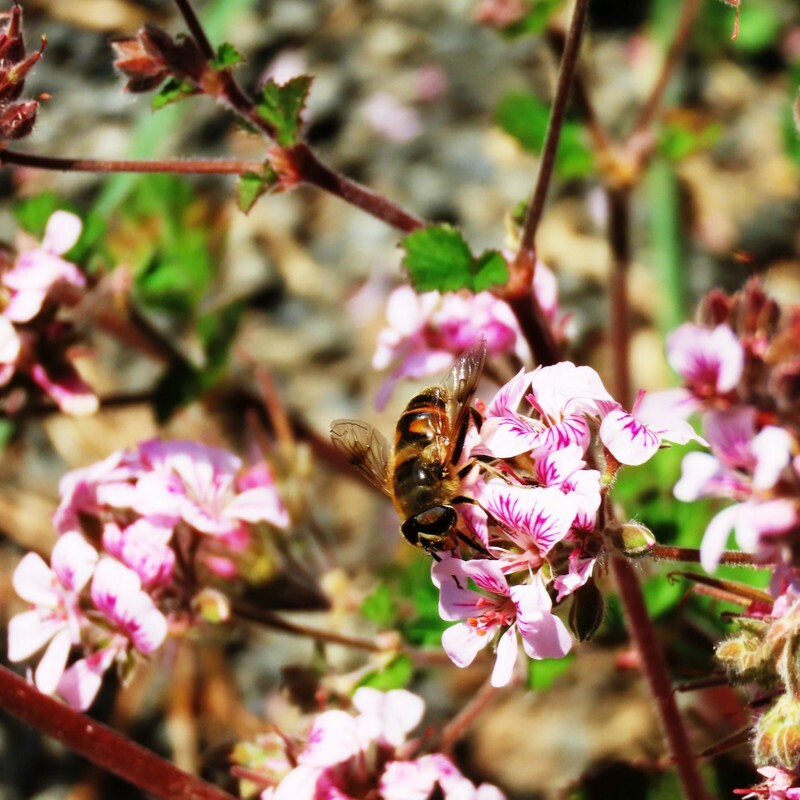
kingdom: Animalia
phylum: Arthropoda
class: Insecta
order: Diptera
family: Syrphidae
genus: Eristalis
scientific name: Eristalis tenax
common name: Drone fly
